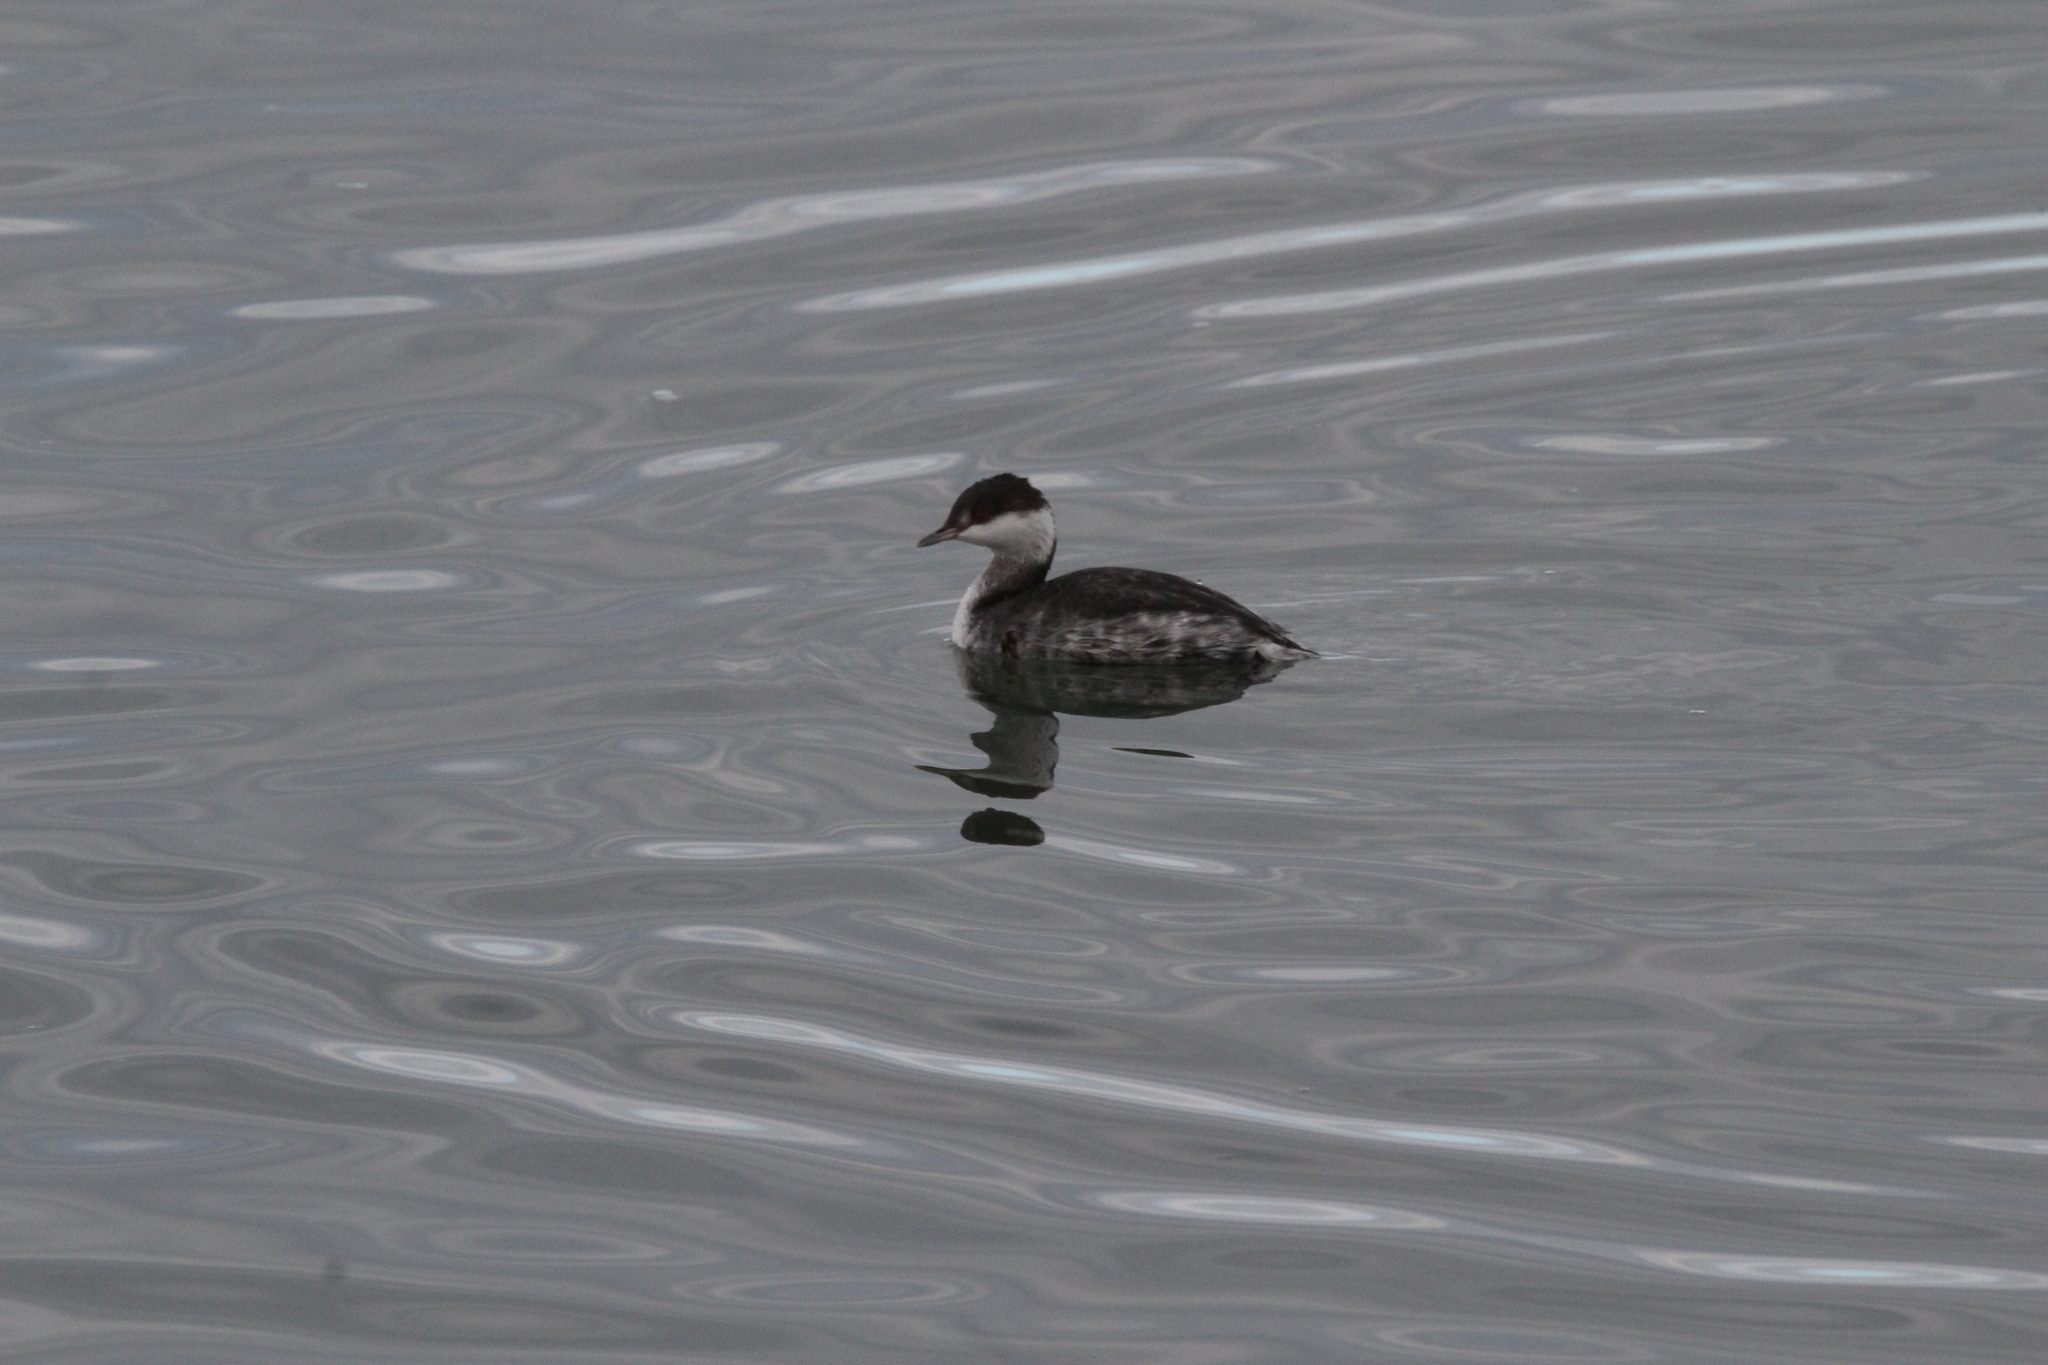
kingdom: Animalia
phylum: Chordata
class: Aves
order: Podicipediformes
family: Podicipedidae
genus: Podiceps
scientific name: Podiceps auritus
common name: Horned grebe
